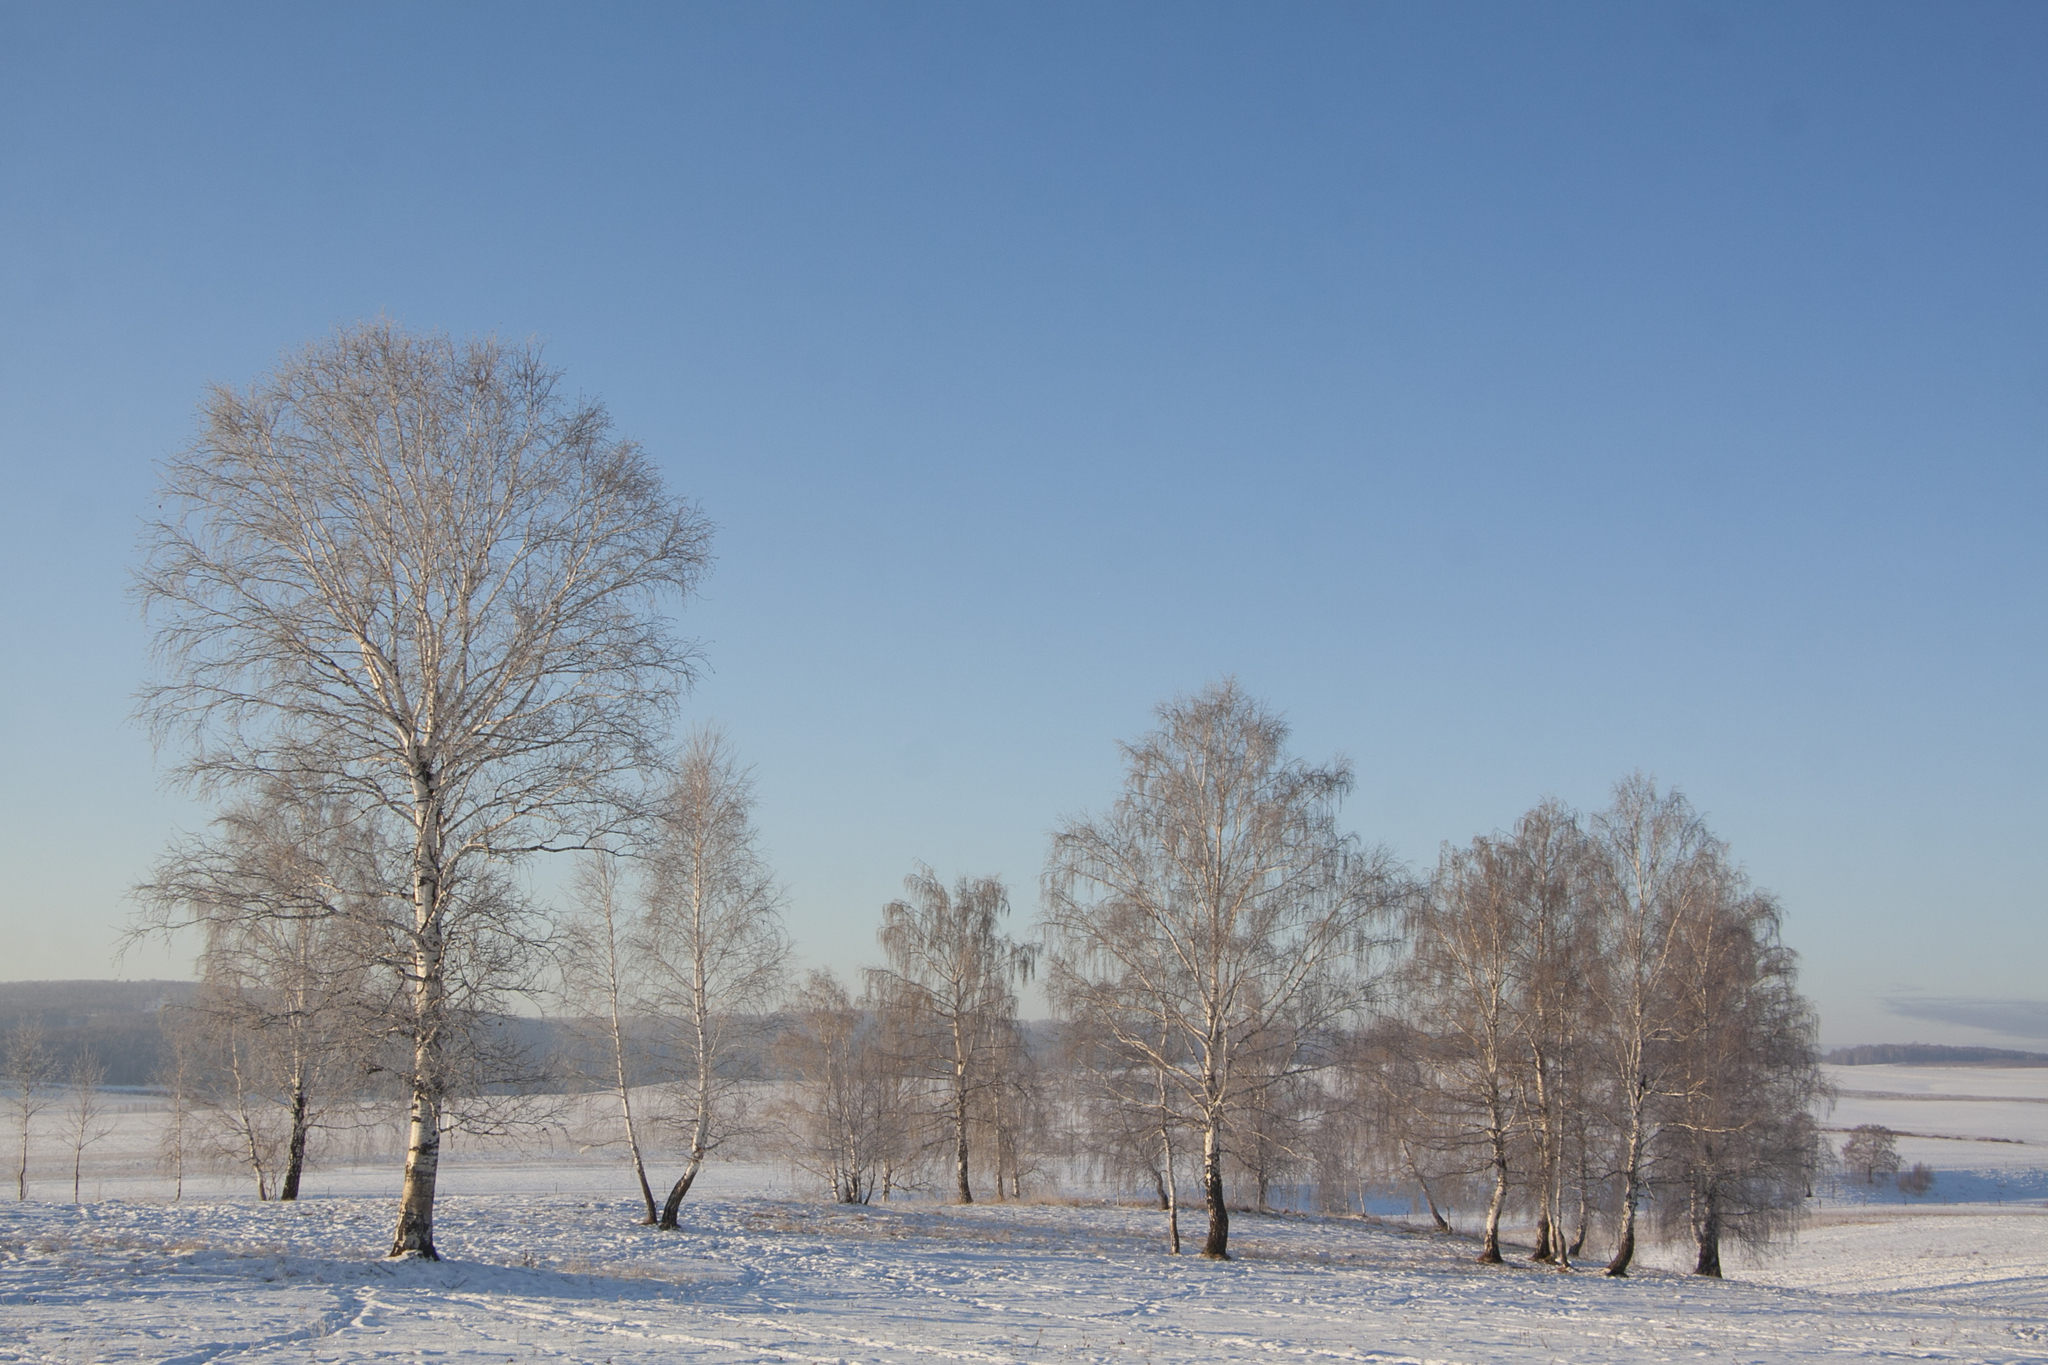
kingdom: Plantae
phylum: Tracheophyta
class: Magnoliopsida
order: Fagales
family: Betulaceae
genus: Betula
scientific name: Betula pendula
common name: Silver birch
